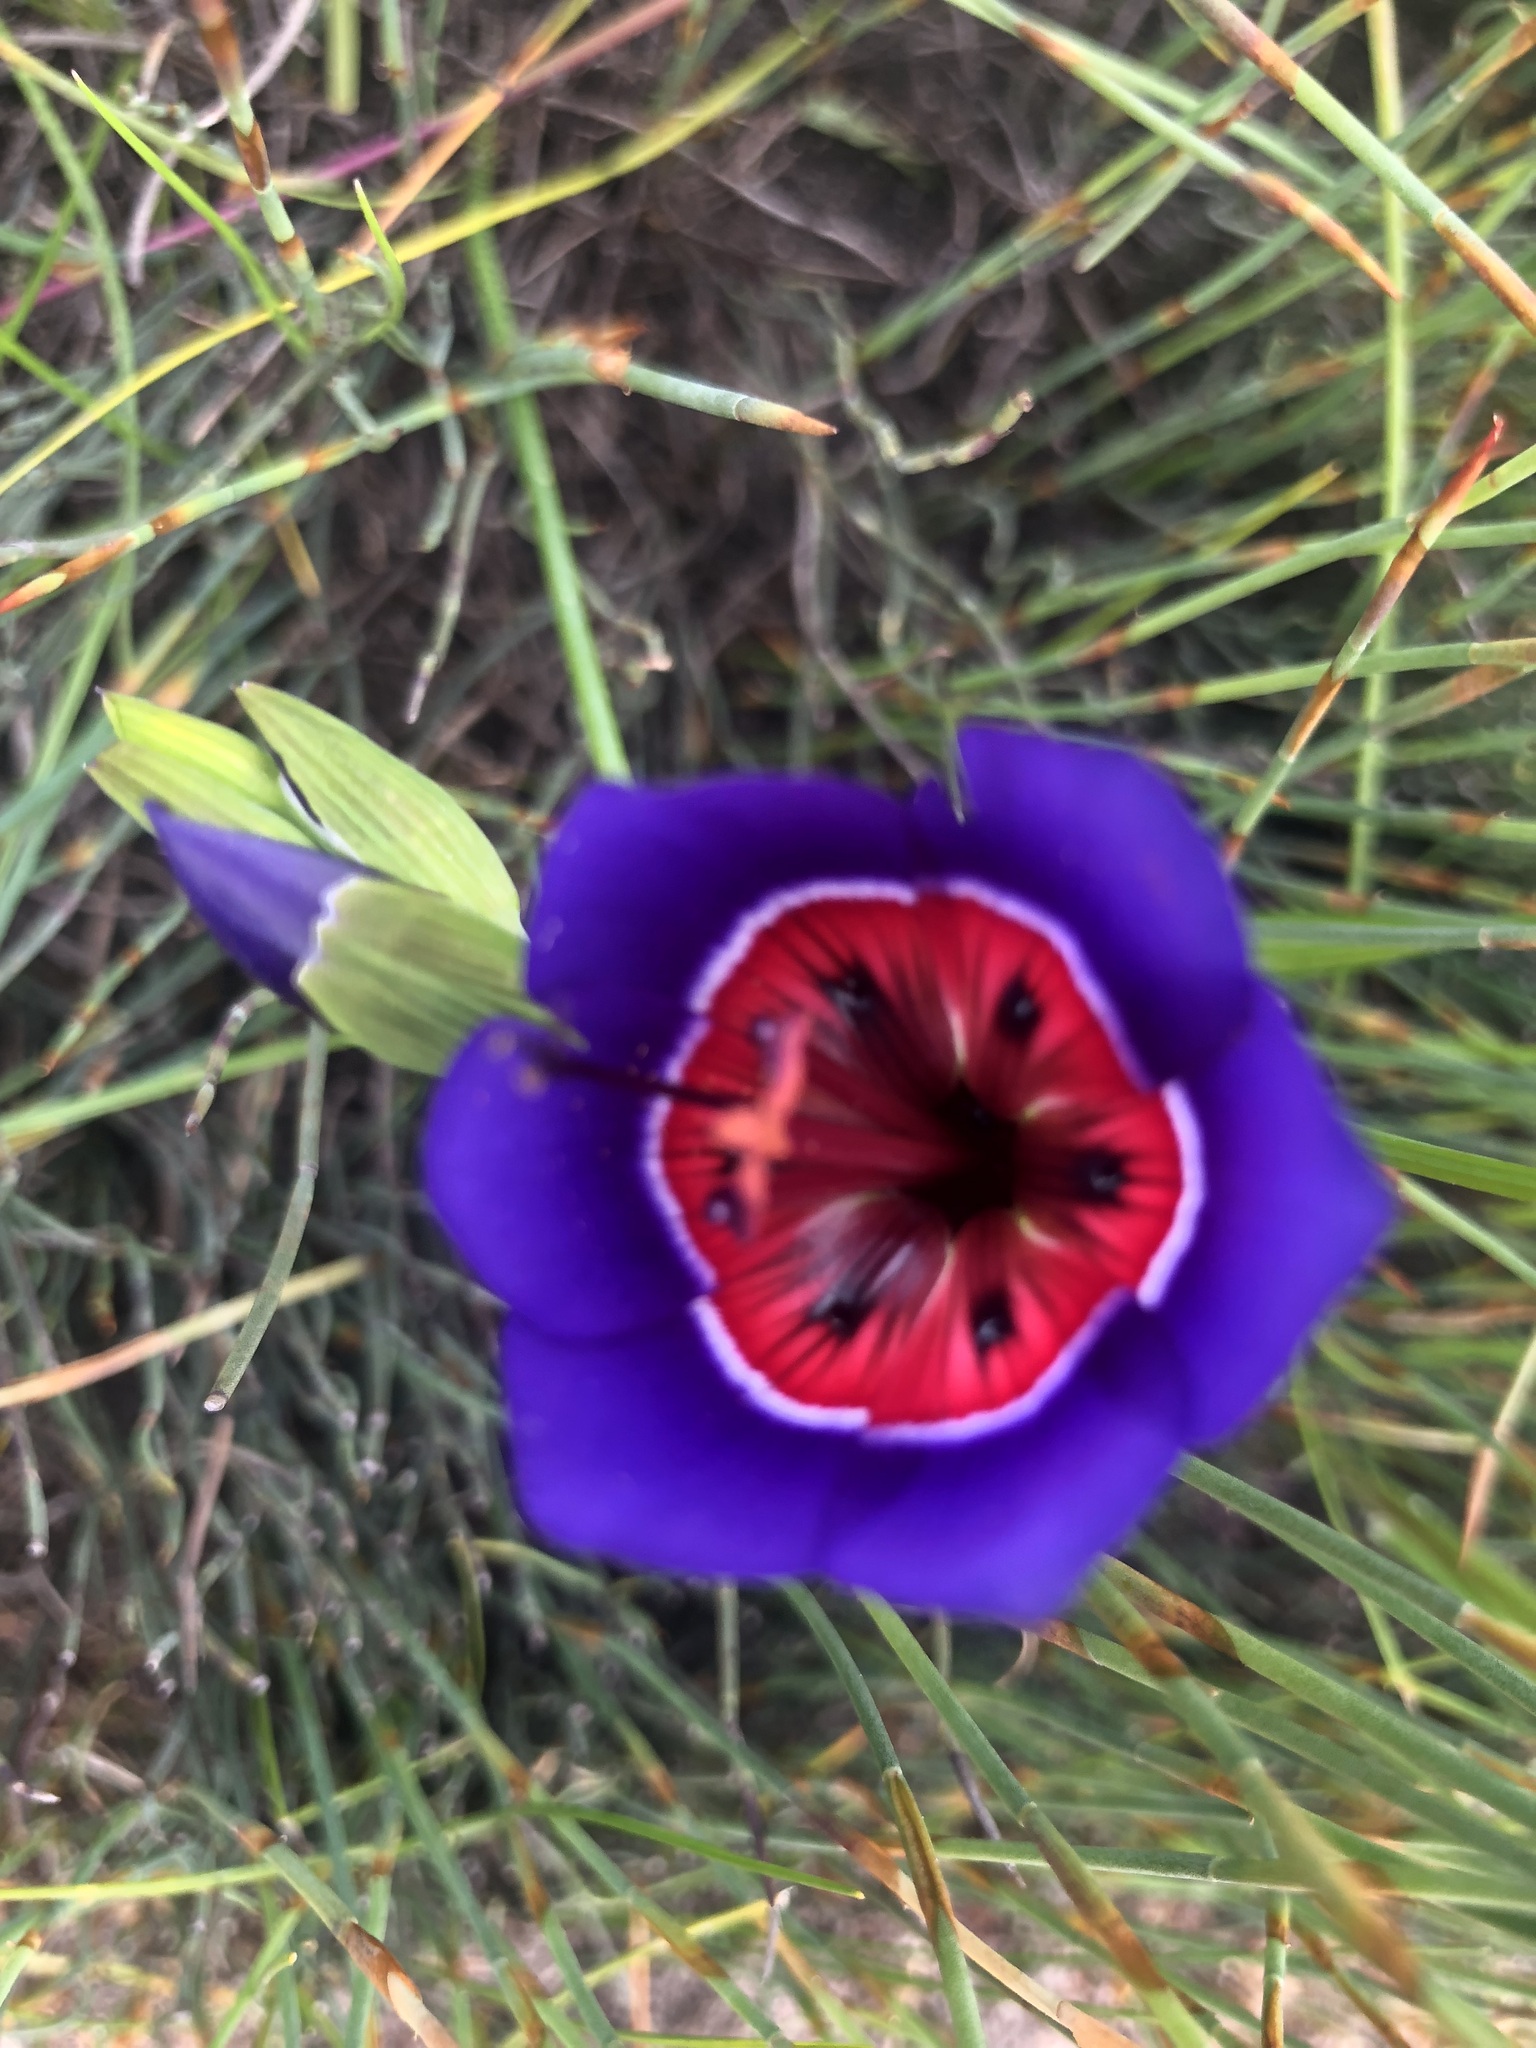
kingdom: Plantae
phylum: Tracheophyta
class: Liliopsida
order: Asparagales
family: Iridaceae
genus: Geissorhiza
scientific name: Geissorhiza radians
